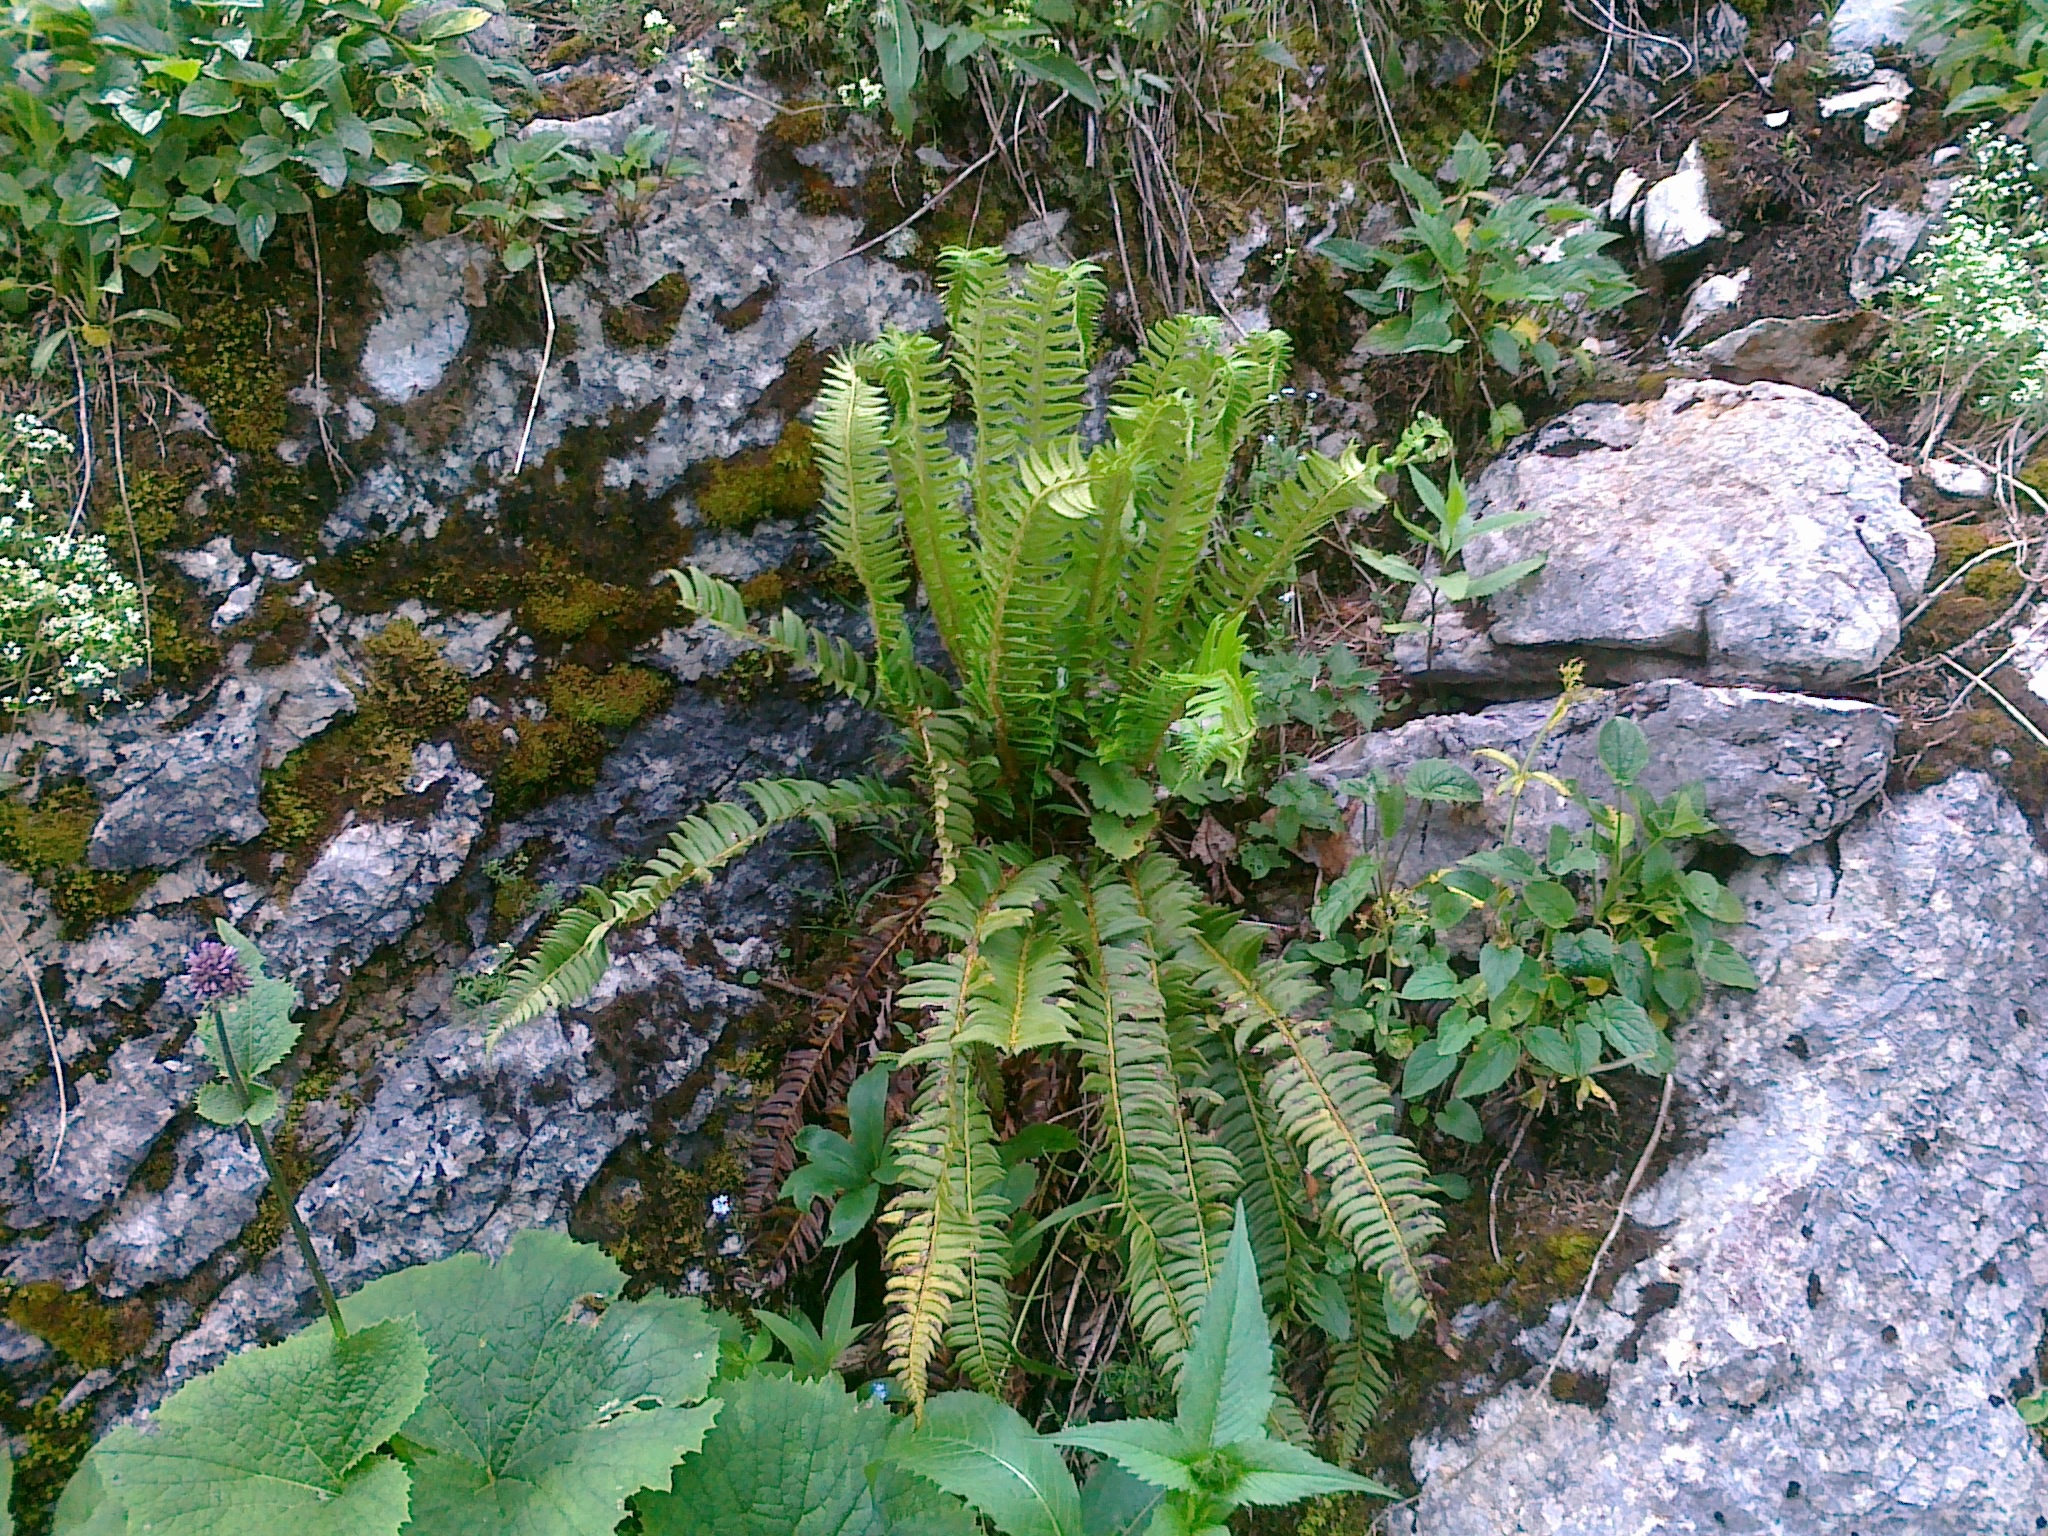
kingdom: Plantae
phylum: Tracheophyta
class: Polypodiopsida
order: Polypodiales
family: Dryopteridaceae
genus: Polystichum
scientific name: Polystichum lonchitis
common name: Holly fern
